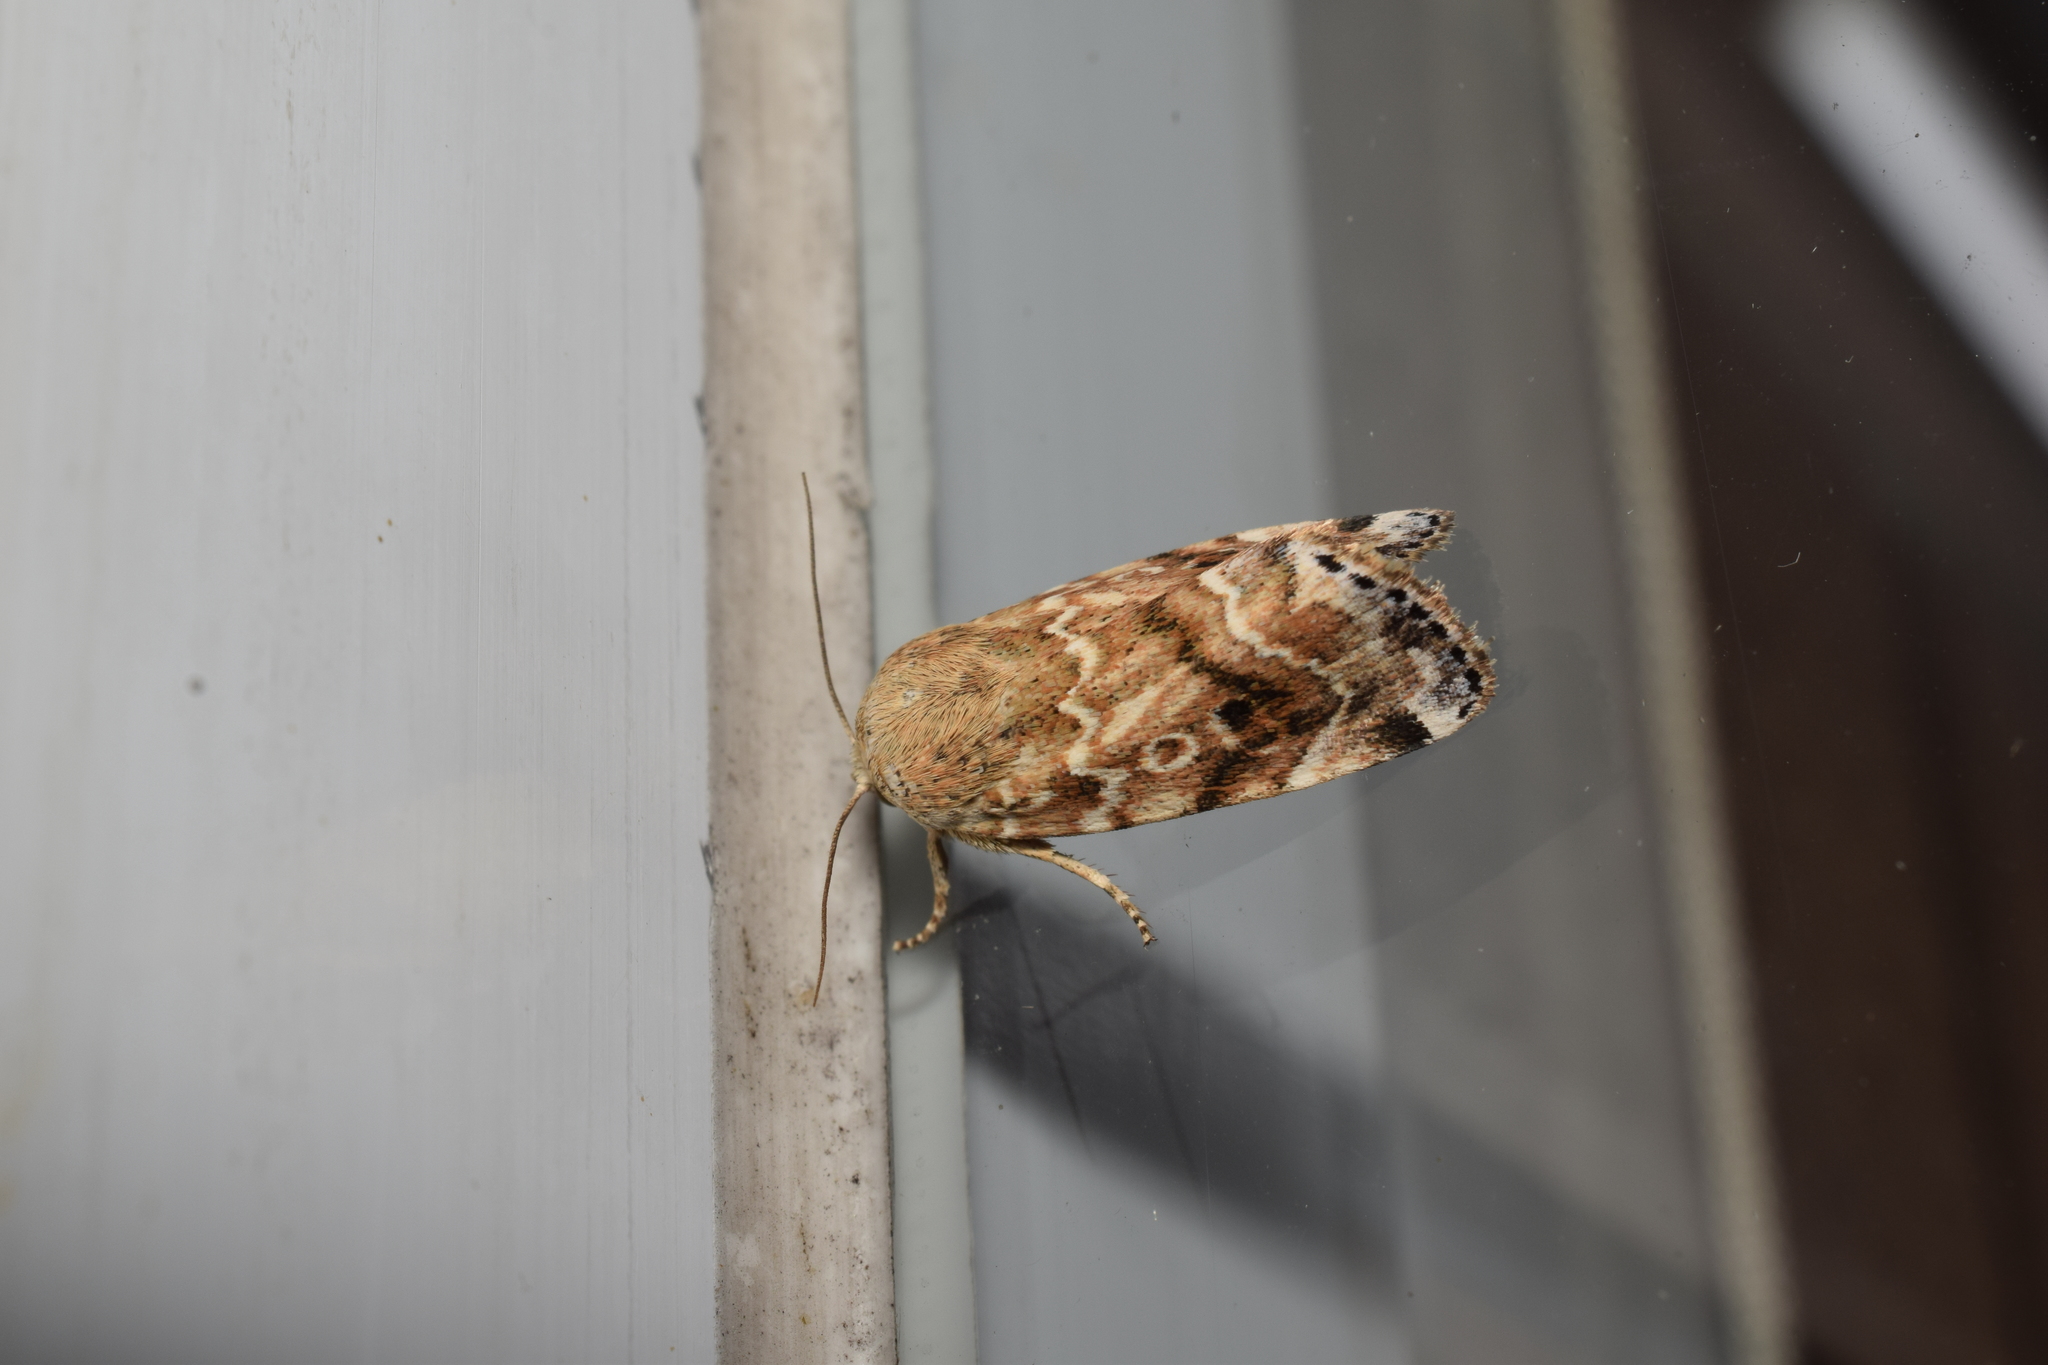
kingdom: Animalia
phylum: Arthropoda
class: Insecta
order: Lepidoptera
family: Noctuidae
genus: Cosmia
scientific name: Cosmia achatina
